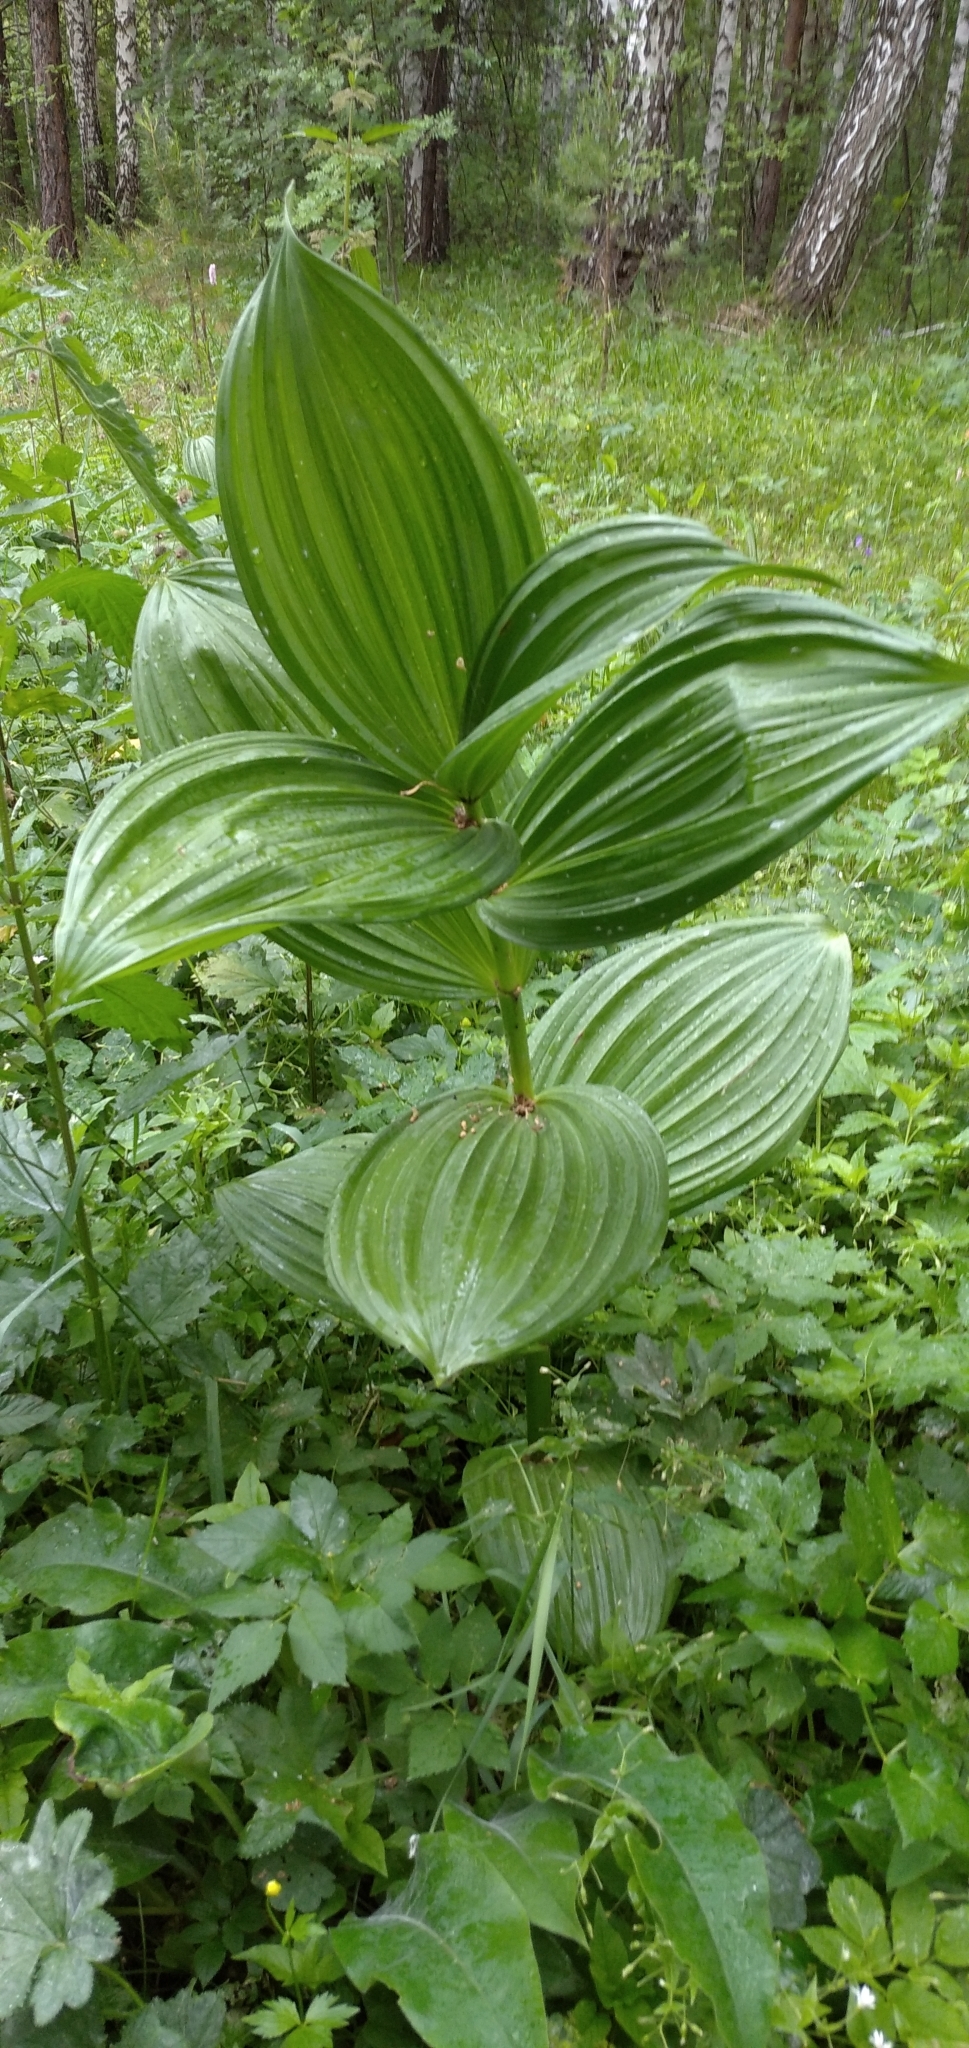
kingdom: Plantae
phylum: Tracheophyta
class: Liliopsida
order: Liliales
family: Melanthiaceae
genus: Veratrum
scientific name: Veratrum lobelianum
